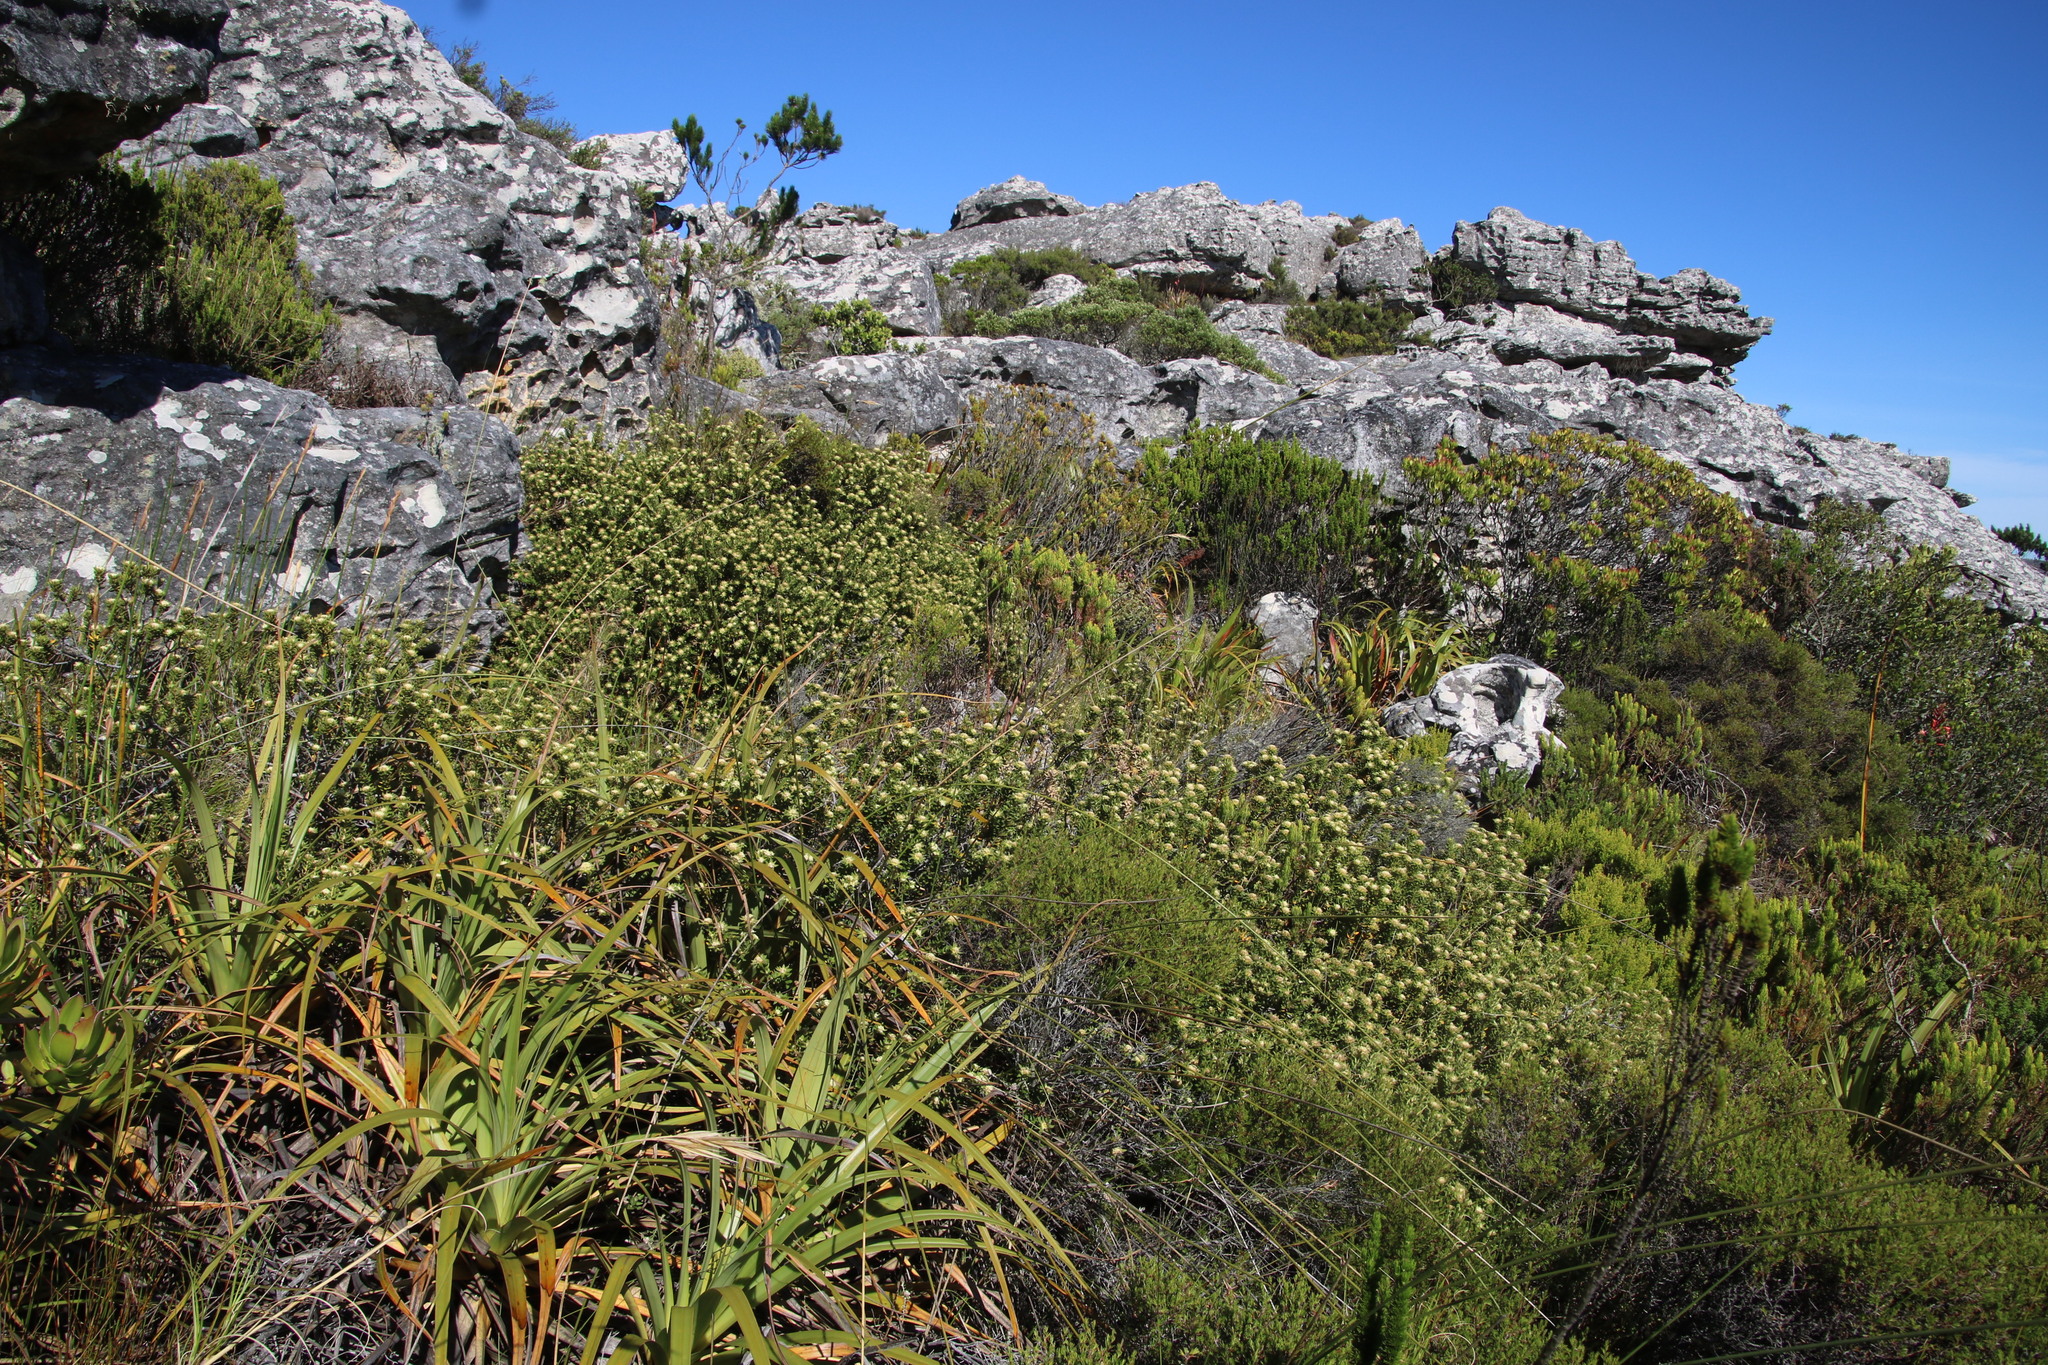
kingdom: Plantae
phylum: Tracheophyta
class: Magnoliopsida
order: Rosales
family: Rhamnaceae
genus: Phylica
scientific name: Phylica dioica
